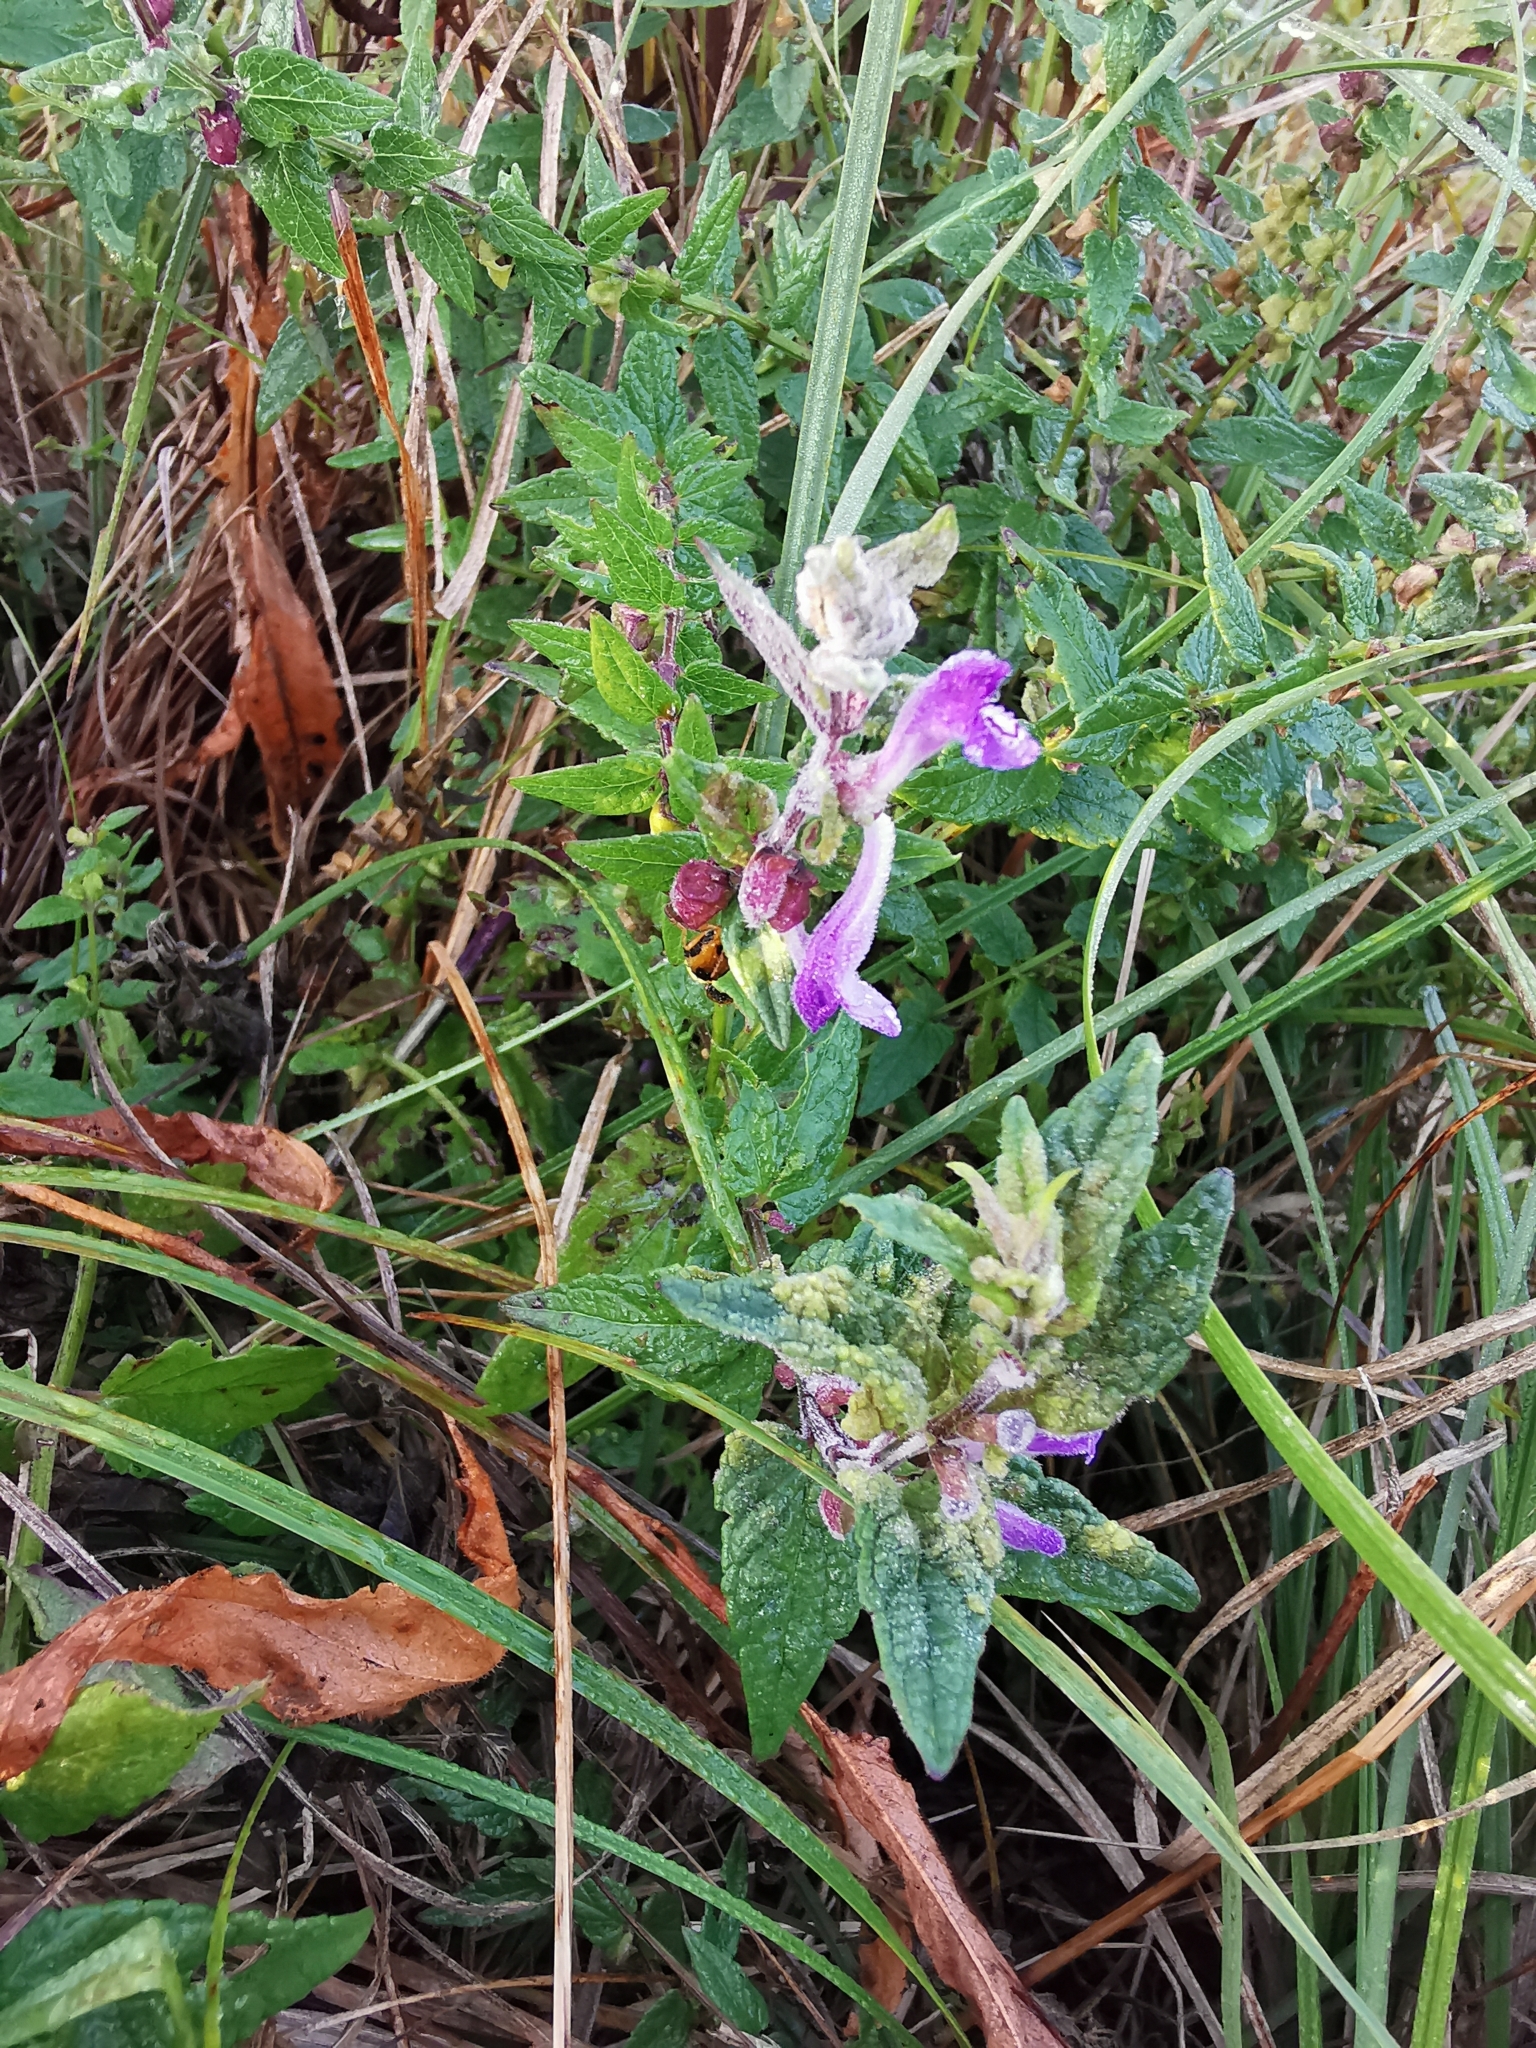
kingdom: Plantae
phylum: Tracheophyta
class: Magnoliopsida
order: Lamiales
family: Lamiaceae
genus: Scutellaria
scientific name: Scutellaria galericulata
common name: Skullcap
